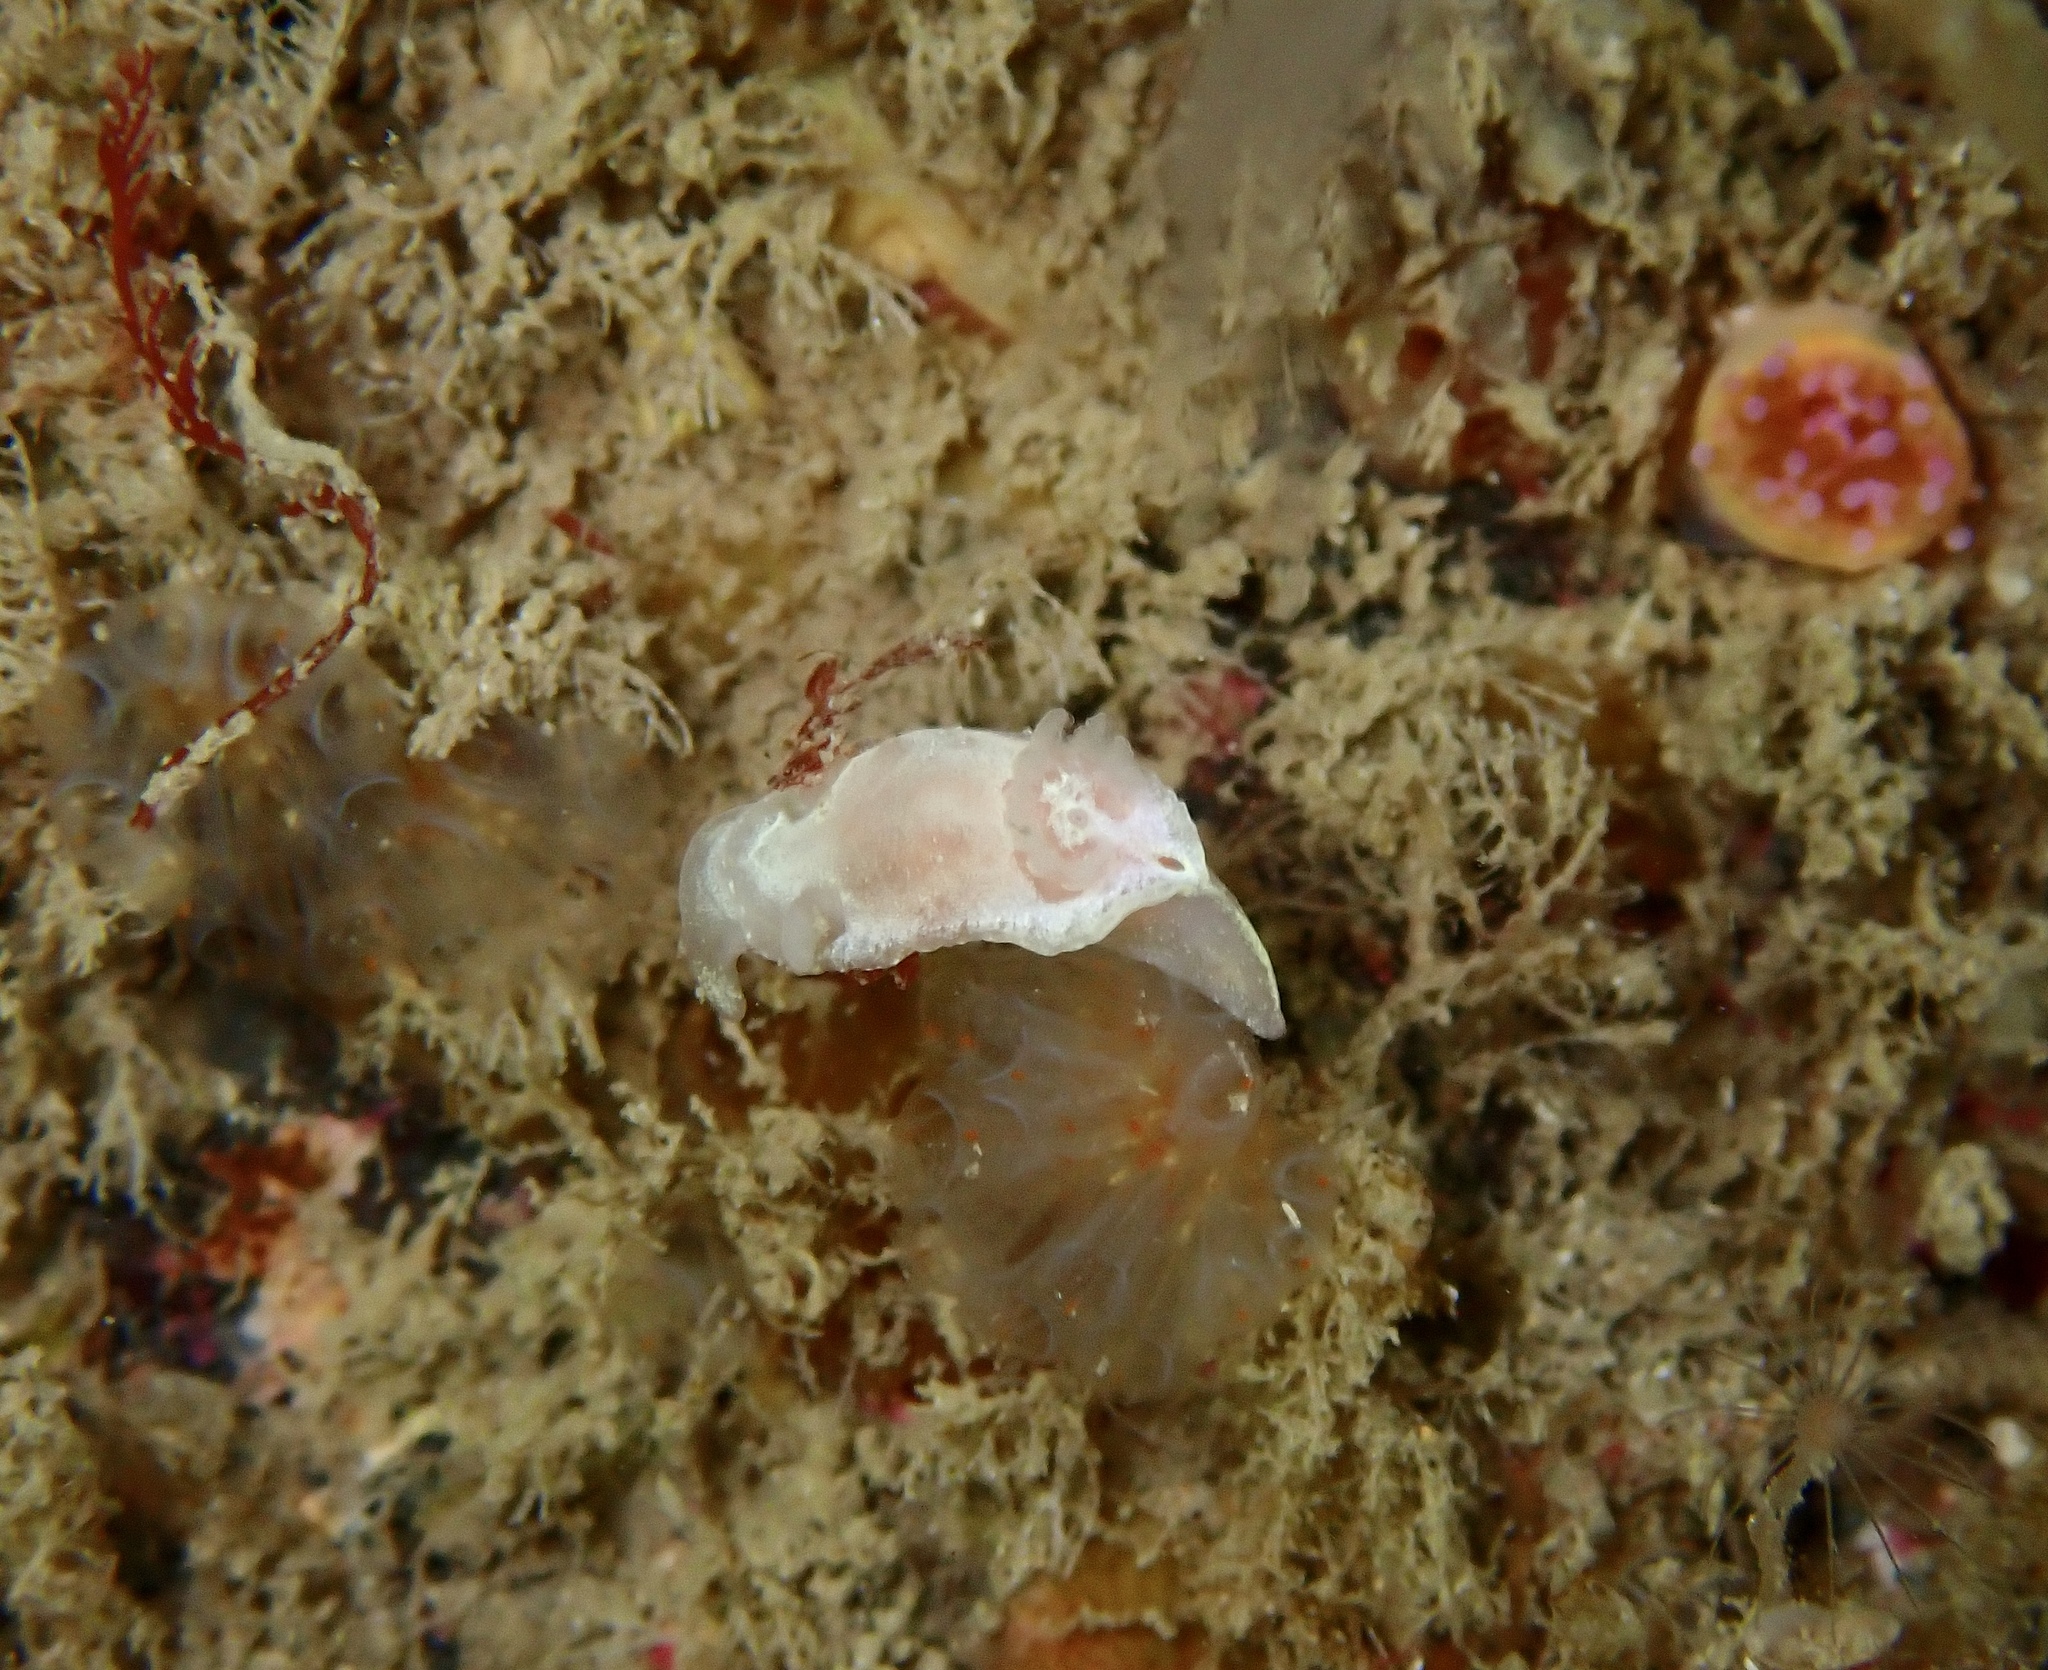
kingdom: Animalia
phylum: Mollusca
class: Gastropoda
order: Nudibranchia
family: Goniodorididae
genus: Okenia
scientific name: Okenia
